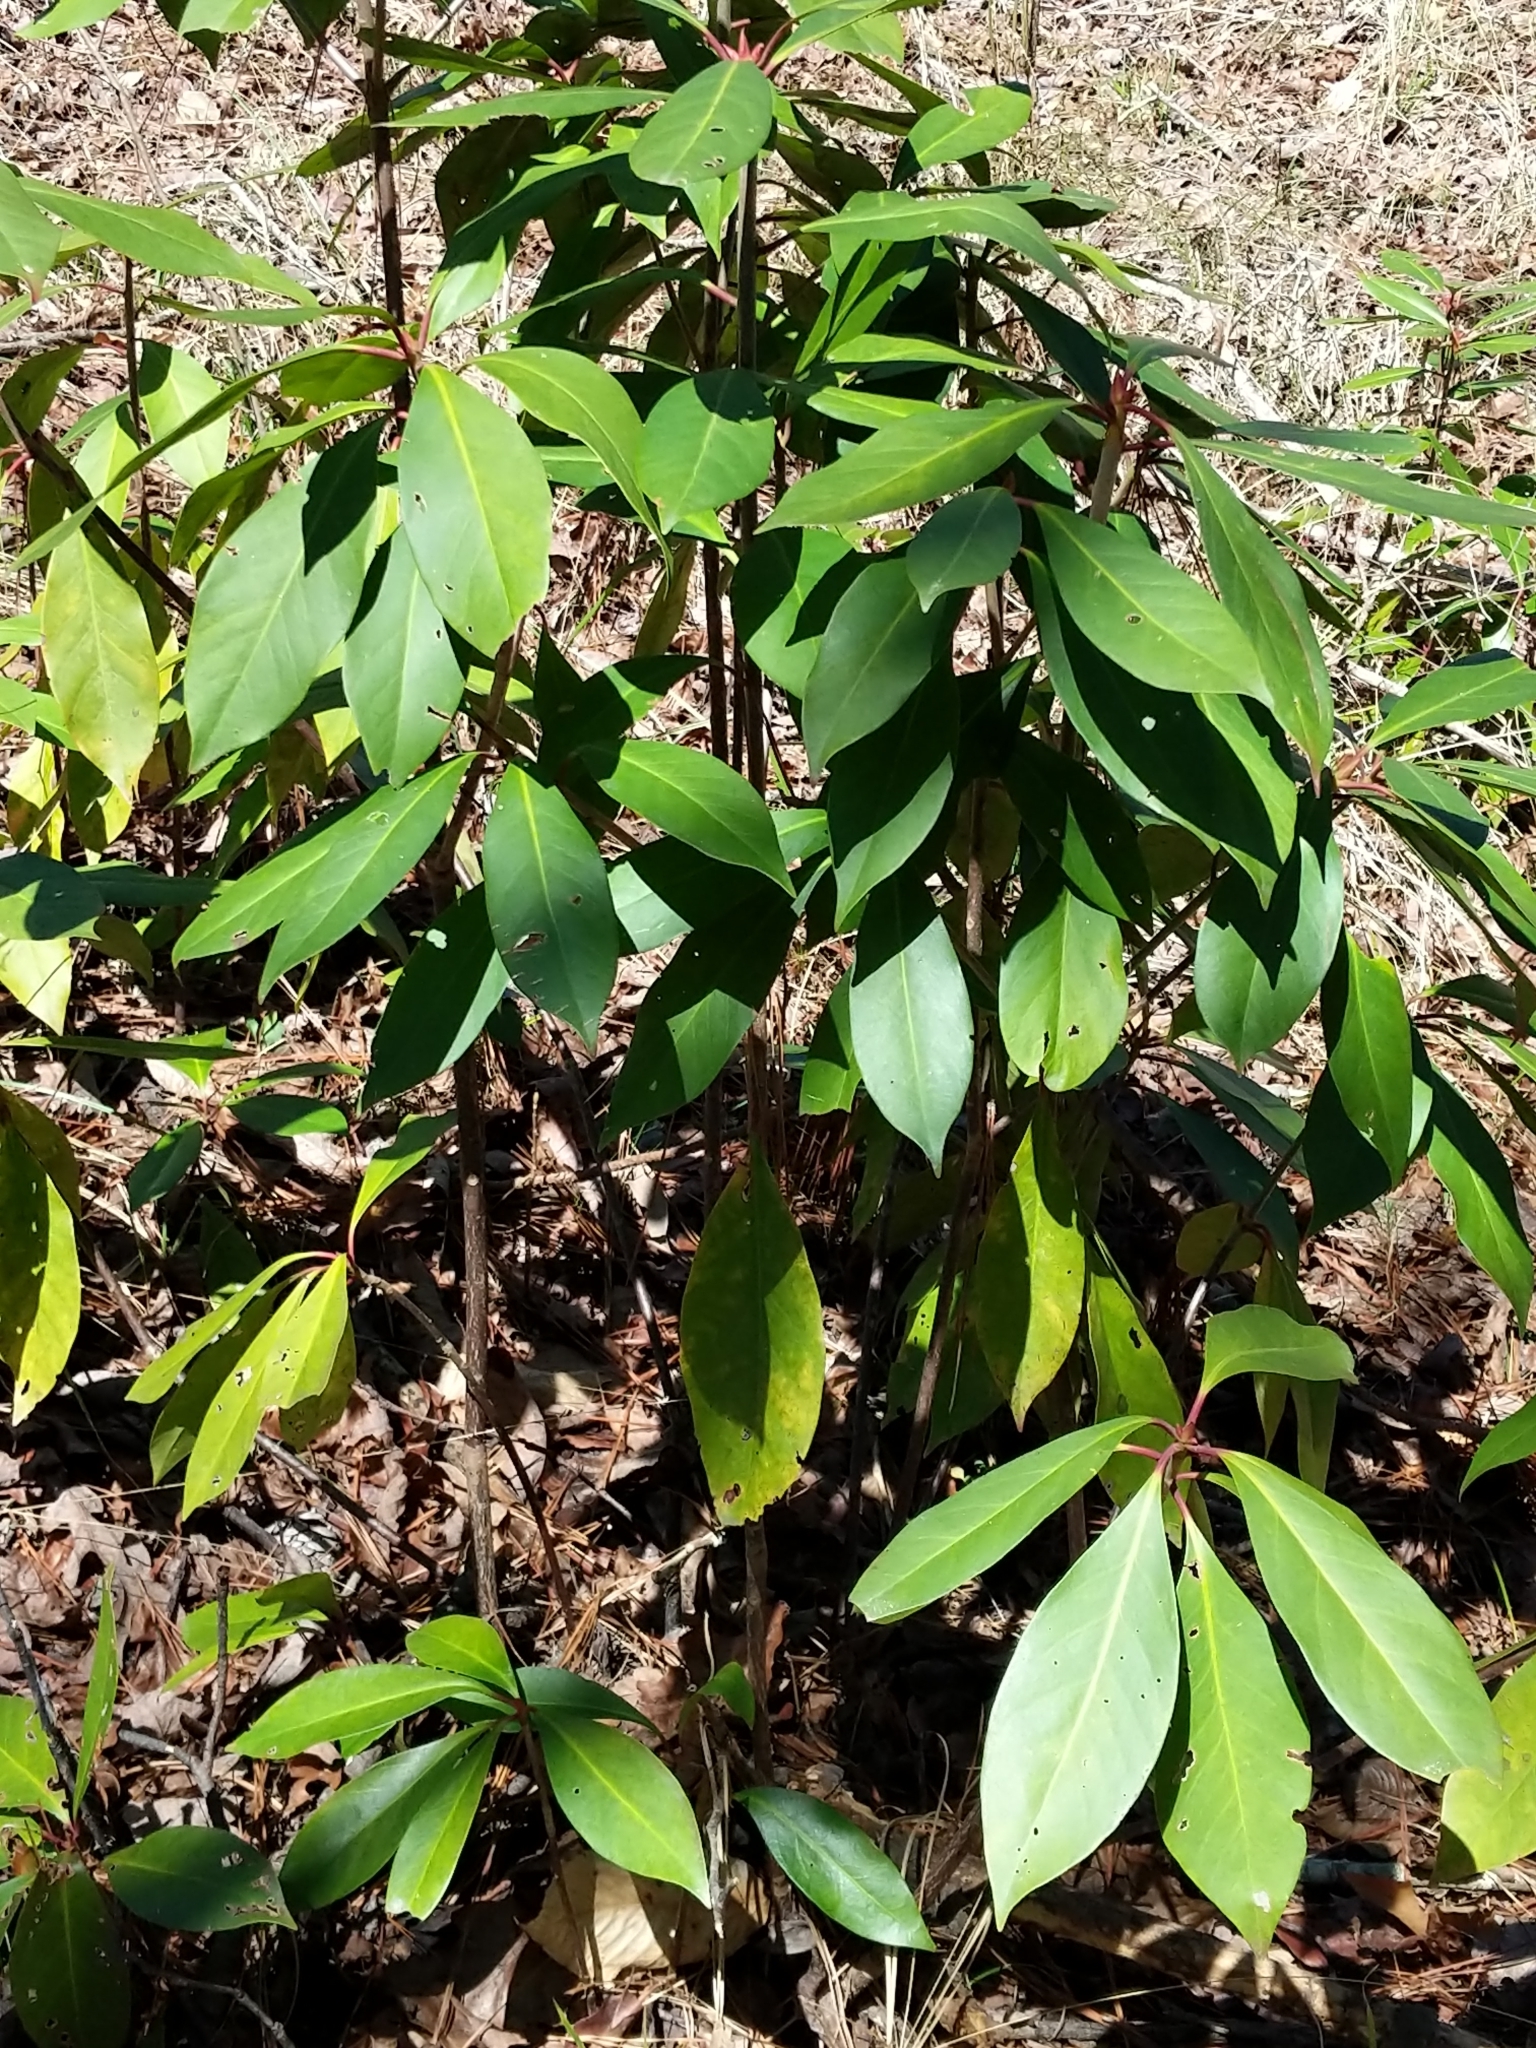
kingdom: Plantae
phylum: Tracheophyta
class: Magnoliopsida
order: Austrobaileyales
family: Schisandraceae
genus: Illicium
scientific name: Illicium floridanum
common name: Florida anisetree
